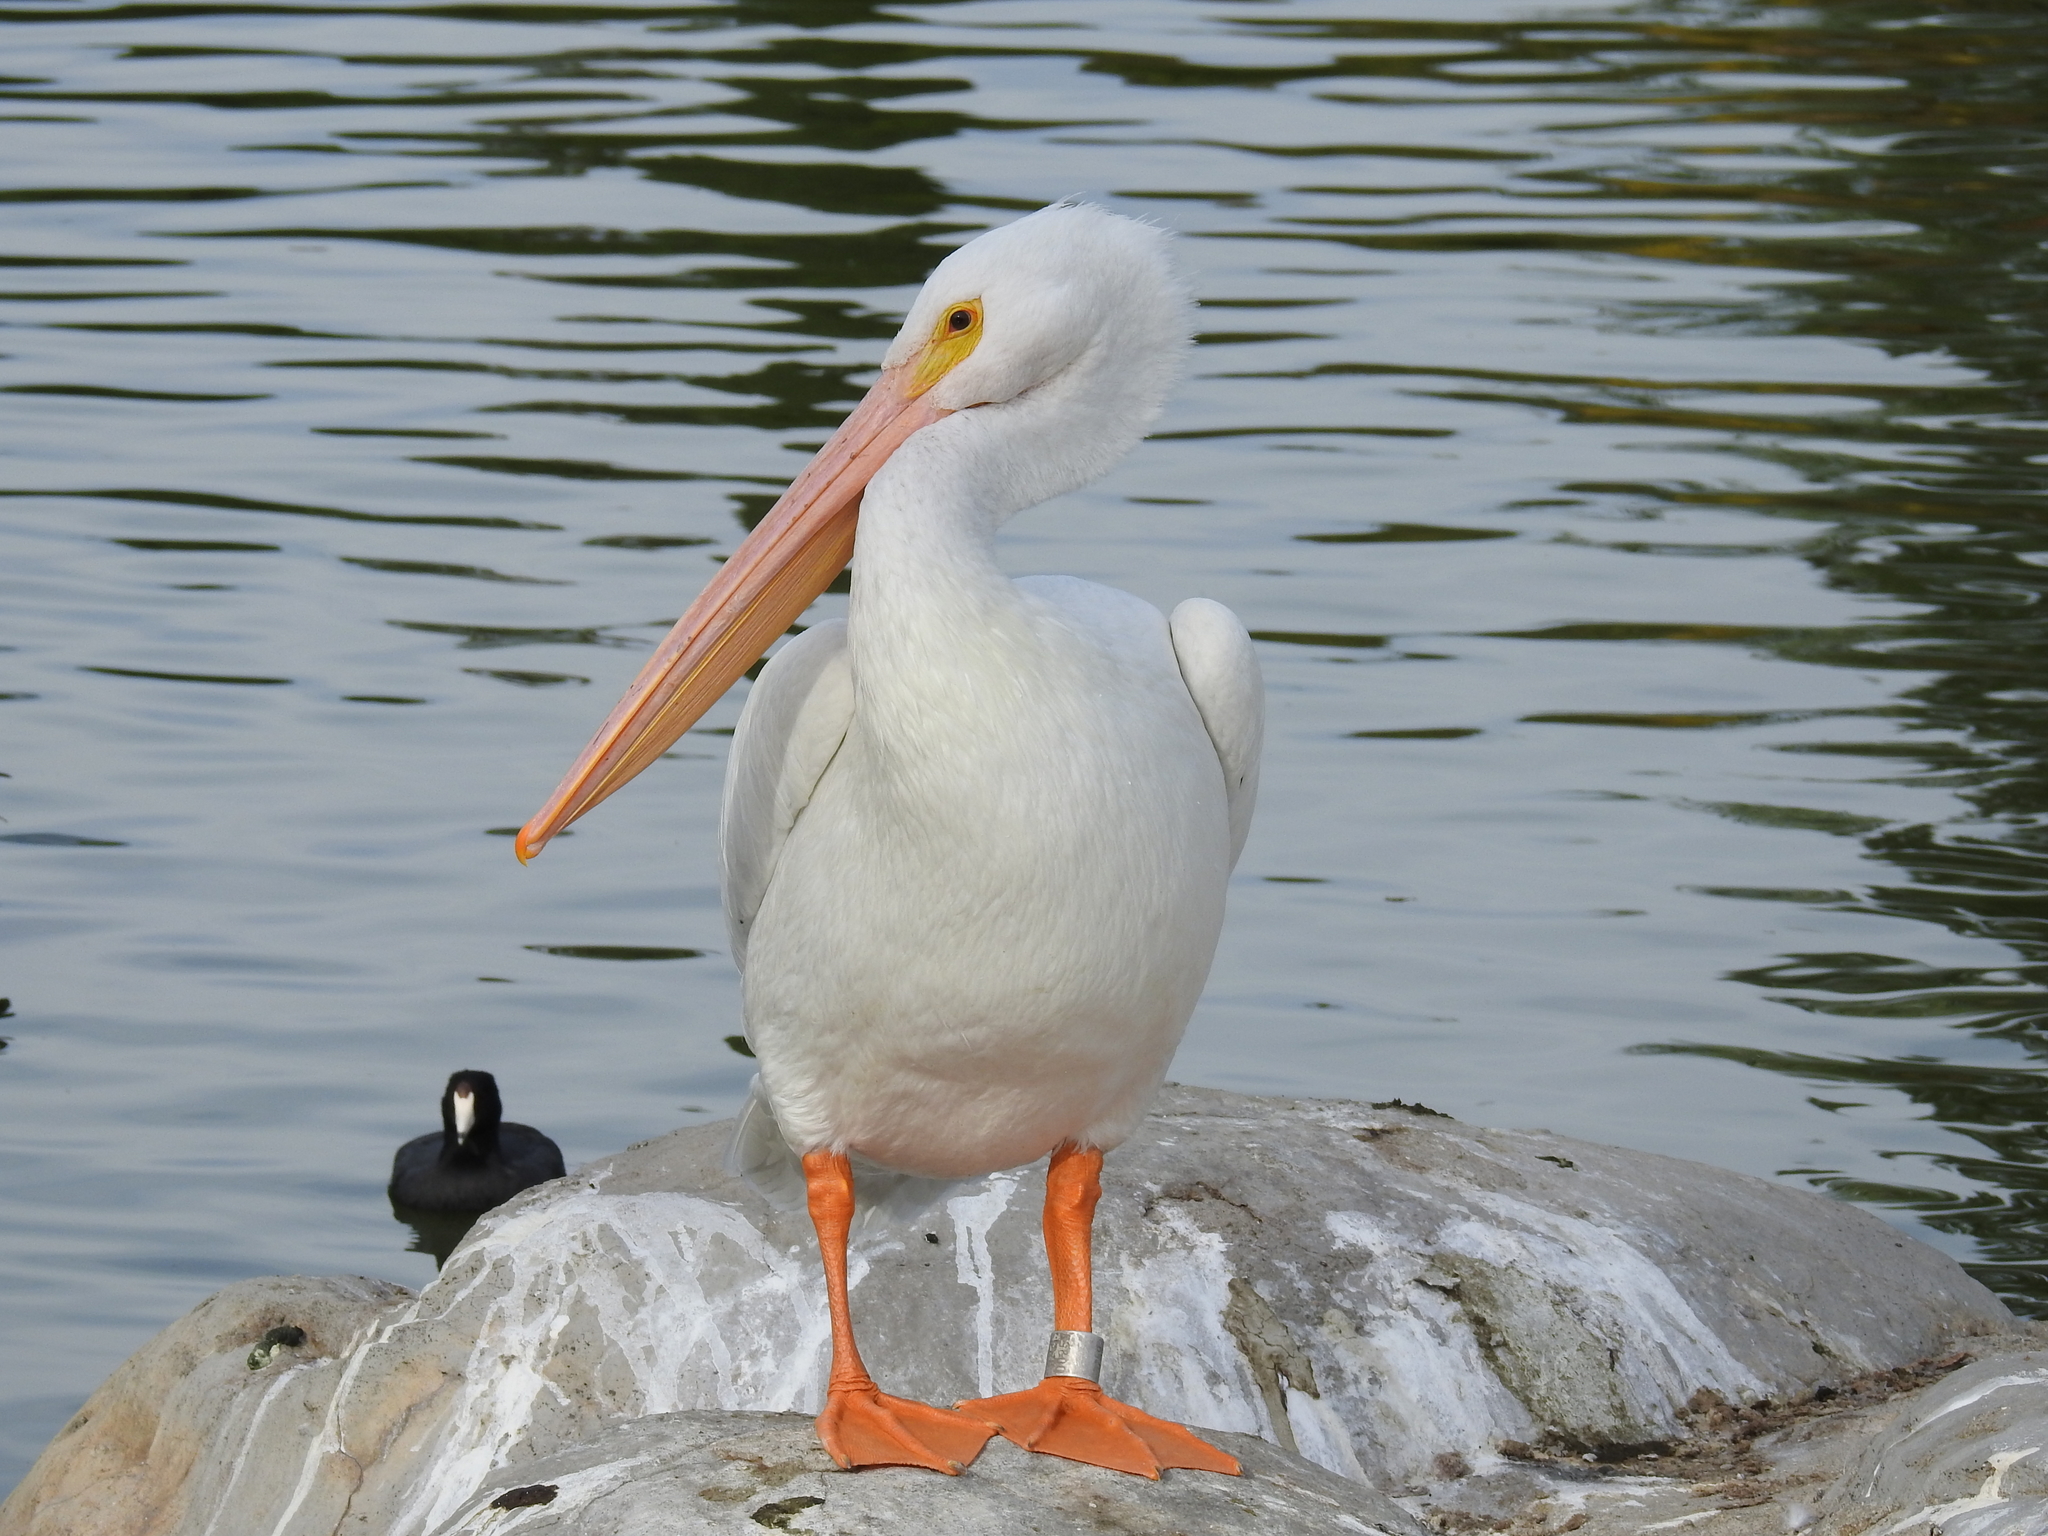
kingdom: Animalia
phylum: Chordata
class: Aves
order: Pelecaniformes
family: Pelecanidae
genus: Pelecanus
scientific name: Pelecanus erythrorhynchos
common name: American white pelican
